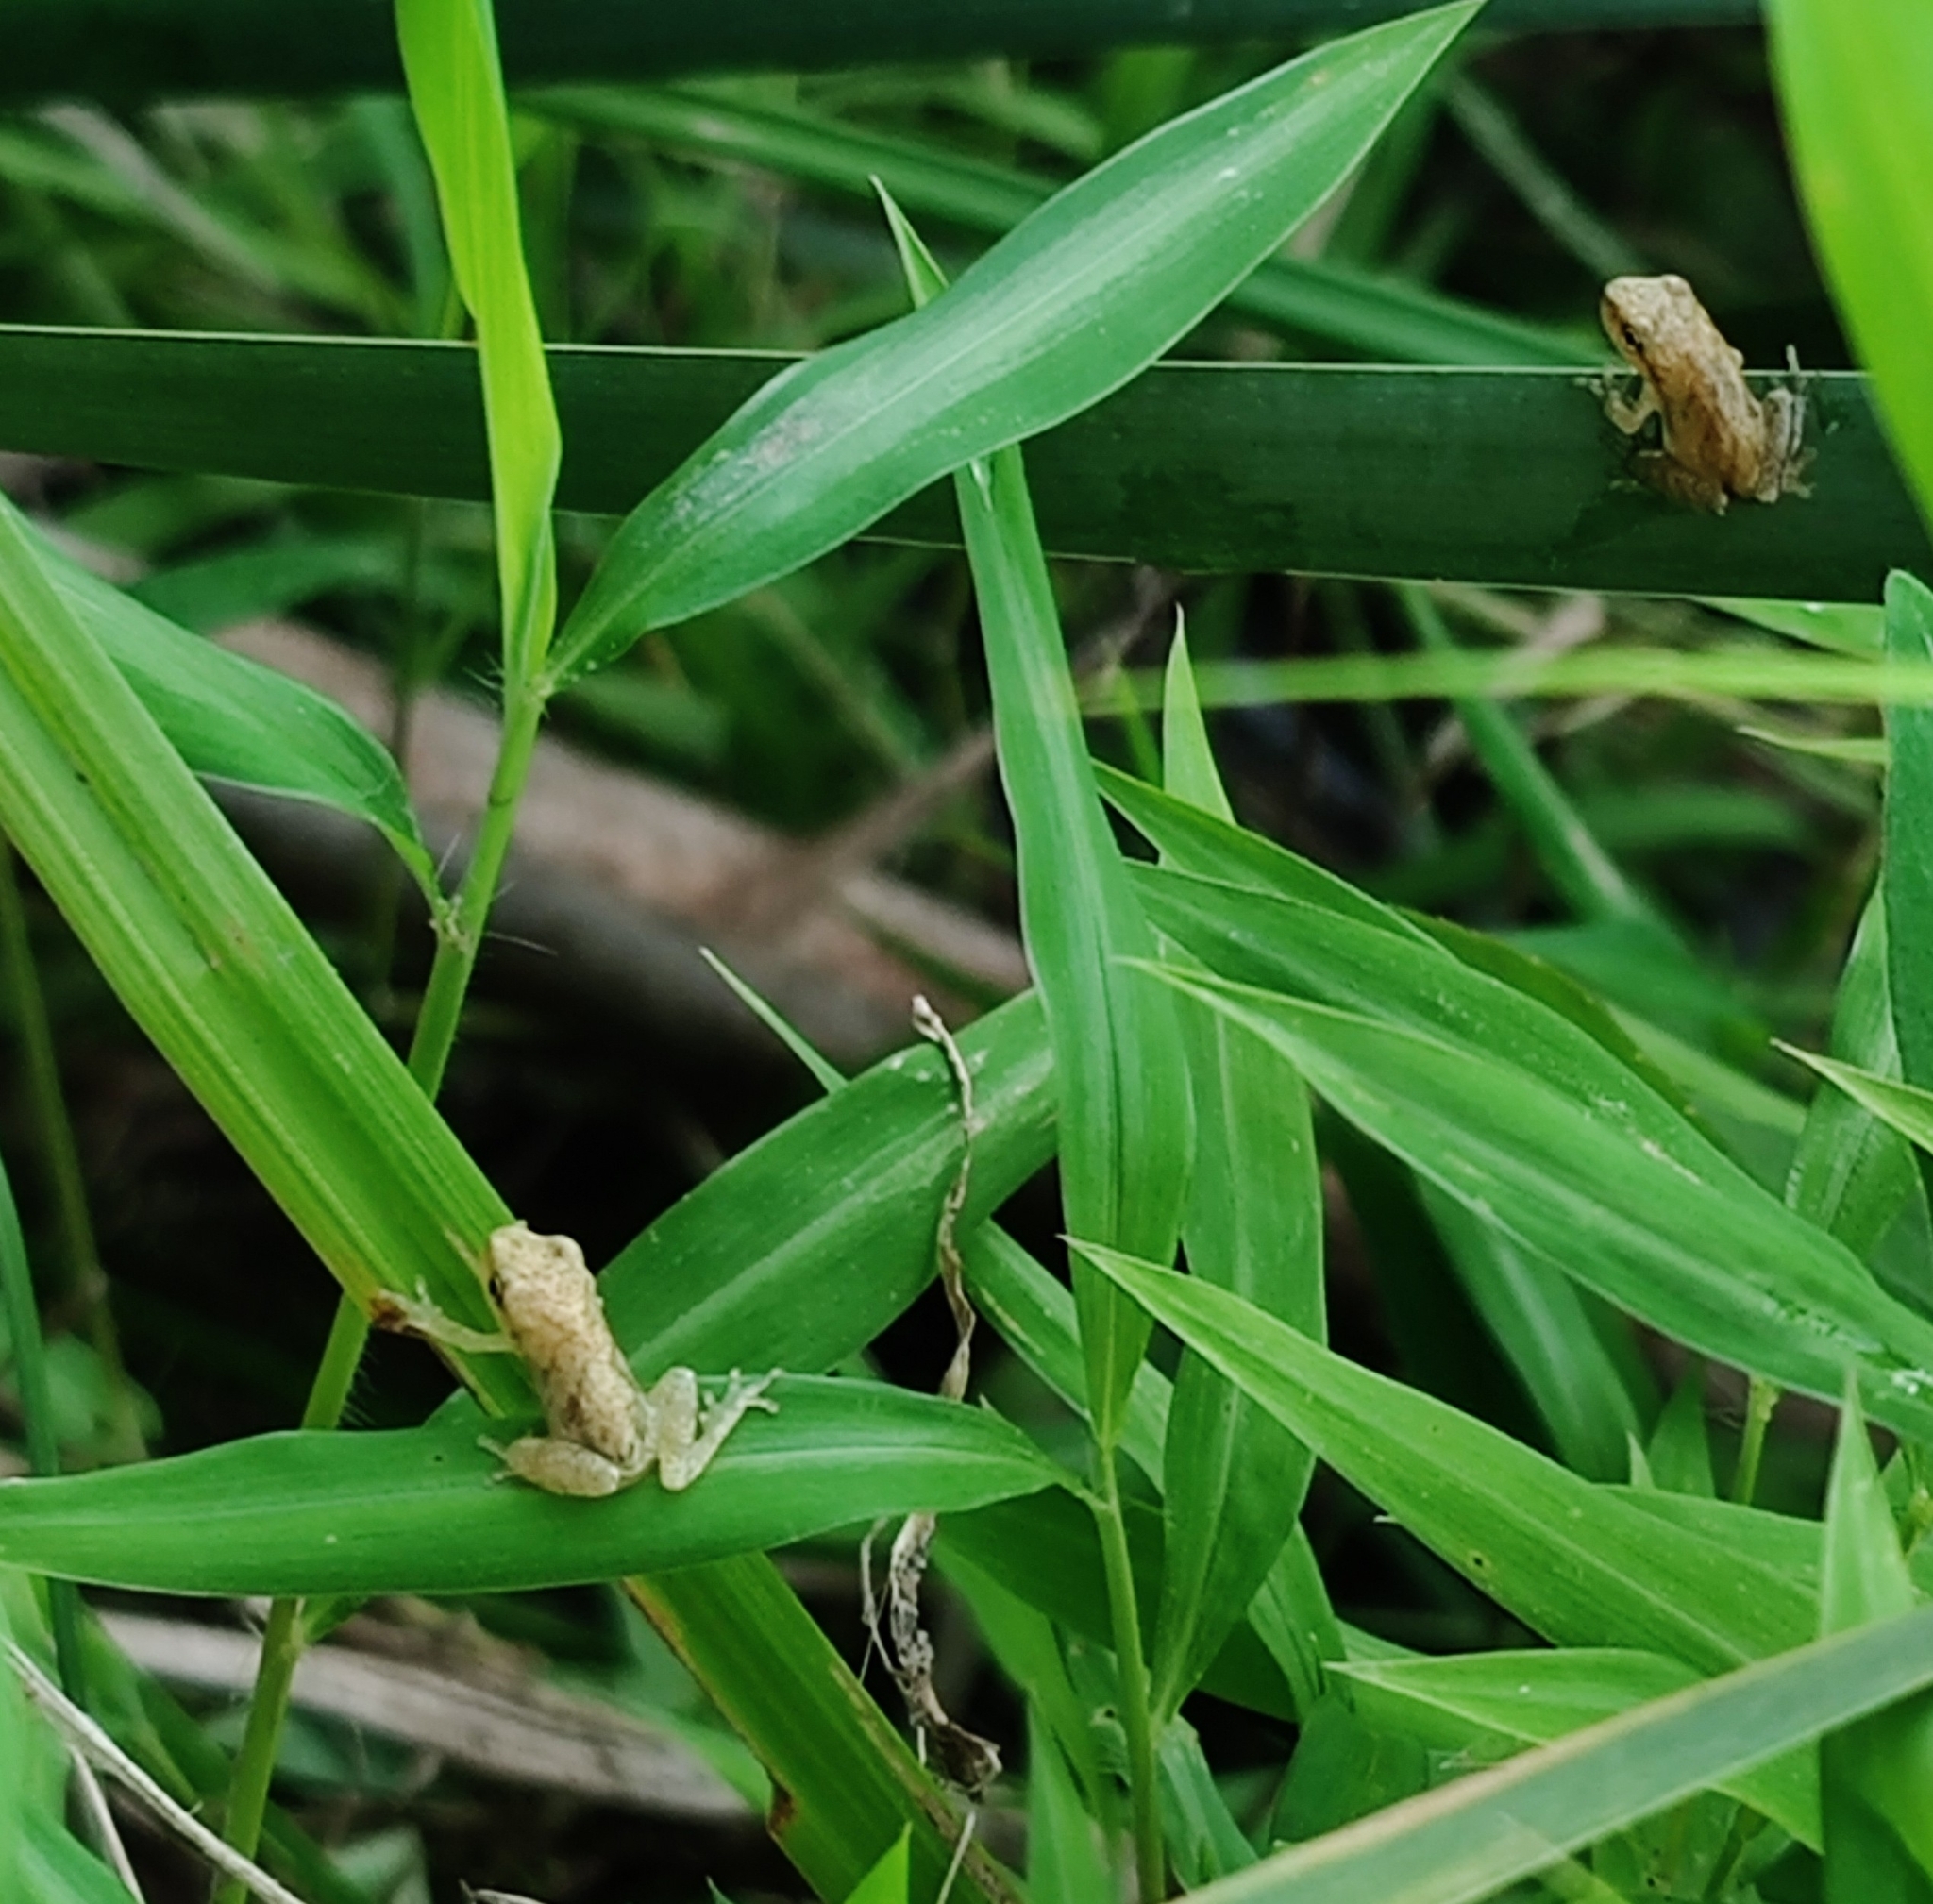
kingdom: Animalia
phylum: Chordata
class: Amphibia
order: Anura
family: Hylidae
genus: Pseudacris
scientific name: Pseudacris crucifer
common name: Spring peeper
